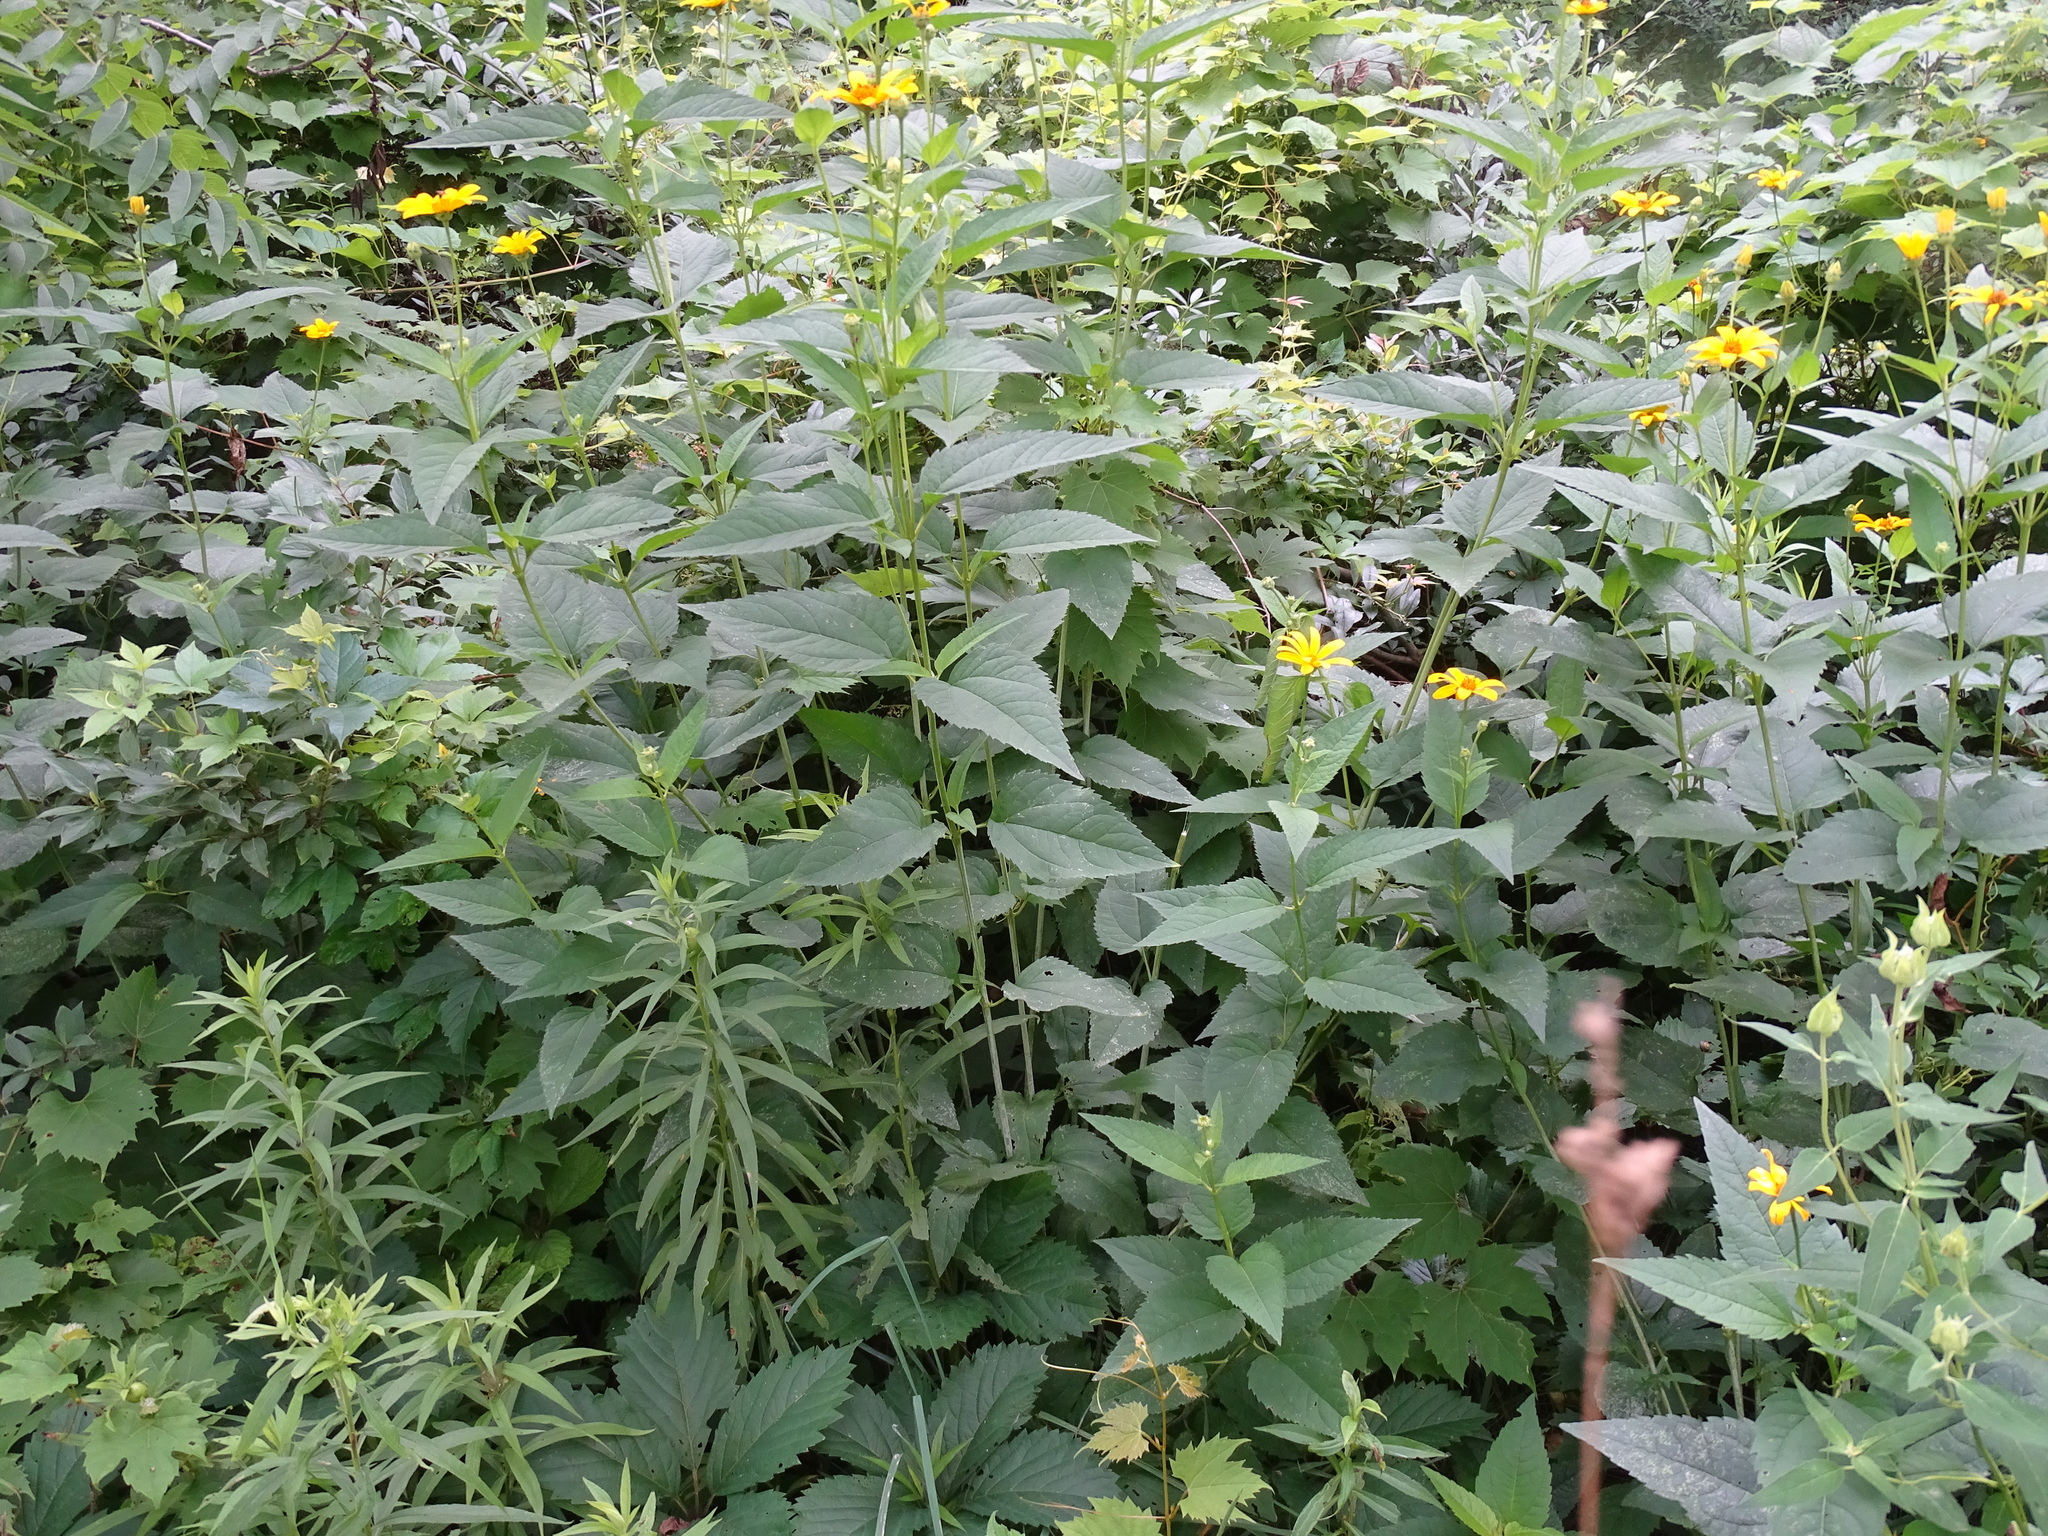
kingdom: Plantae
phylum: Tracheophyta
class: Magnoliopsida
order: Asterales
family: Asteraceae
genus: Heliopsis
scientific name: Heliopsis helianthoides
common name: False sunflower
